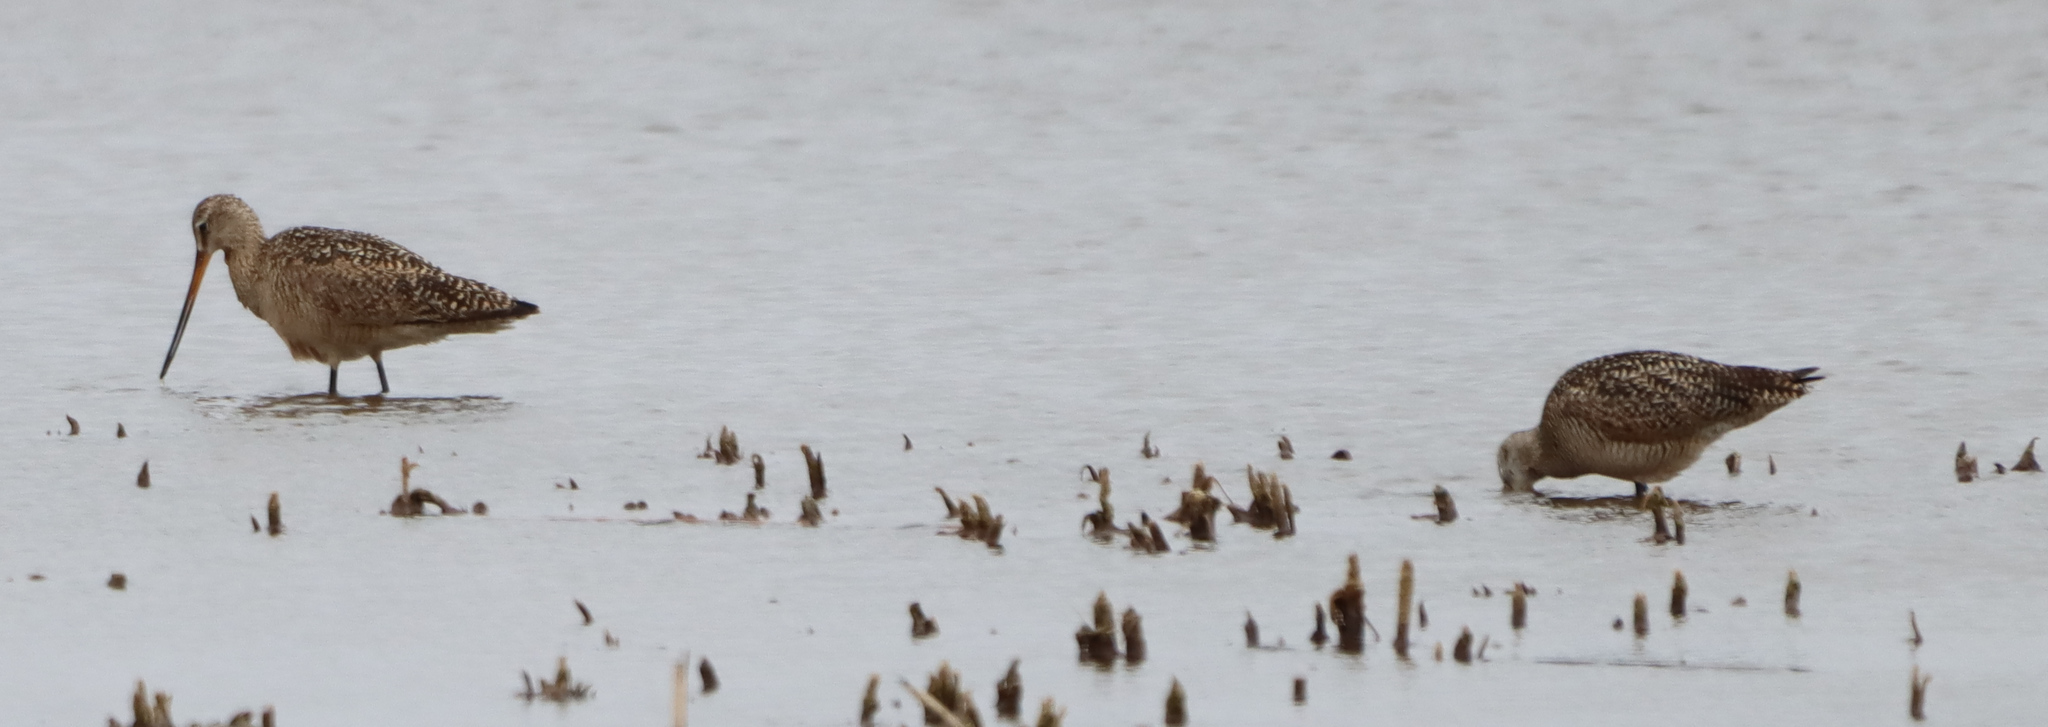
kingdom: Animalia
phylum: Chordata
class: Aves
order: Charadriiformes
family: Scolopacidae
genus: Limosa
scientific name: Limosa fedoa
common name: Marbled godwit
